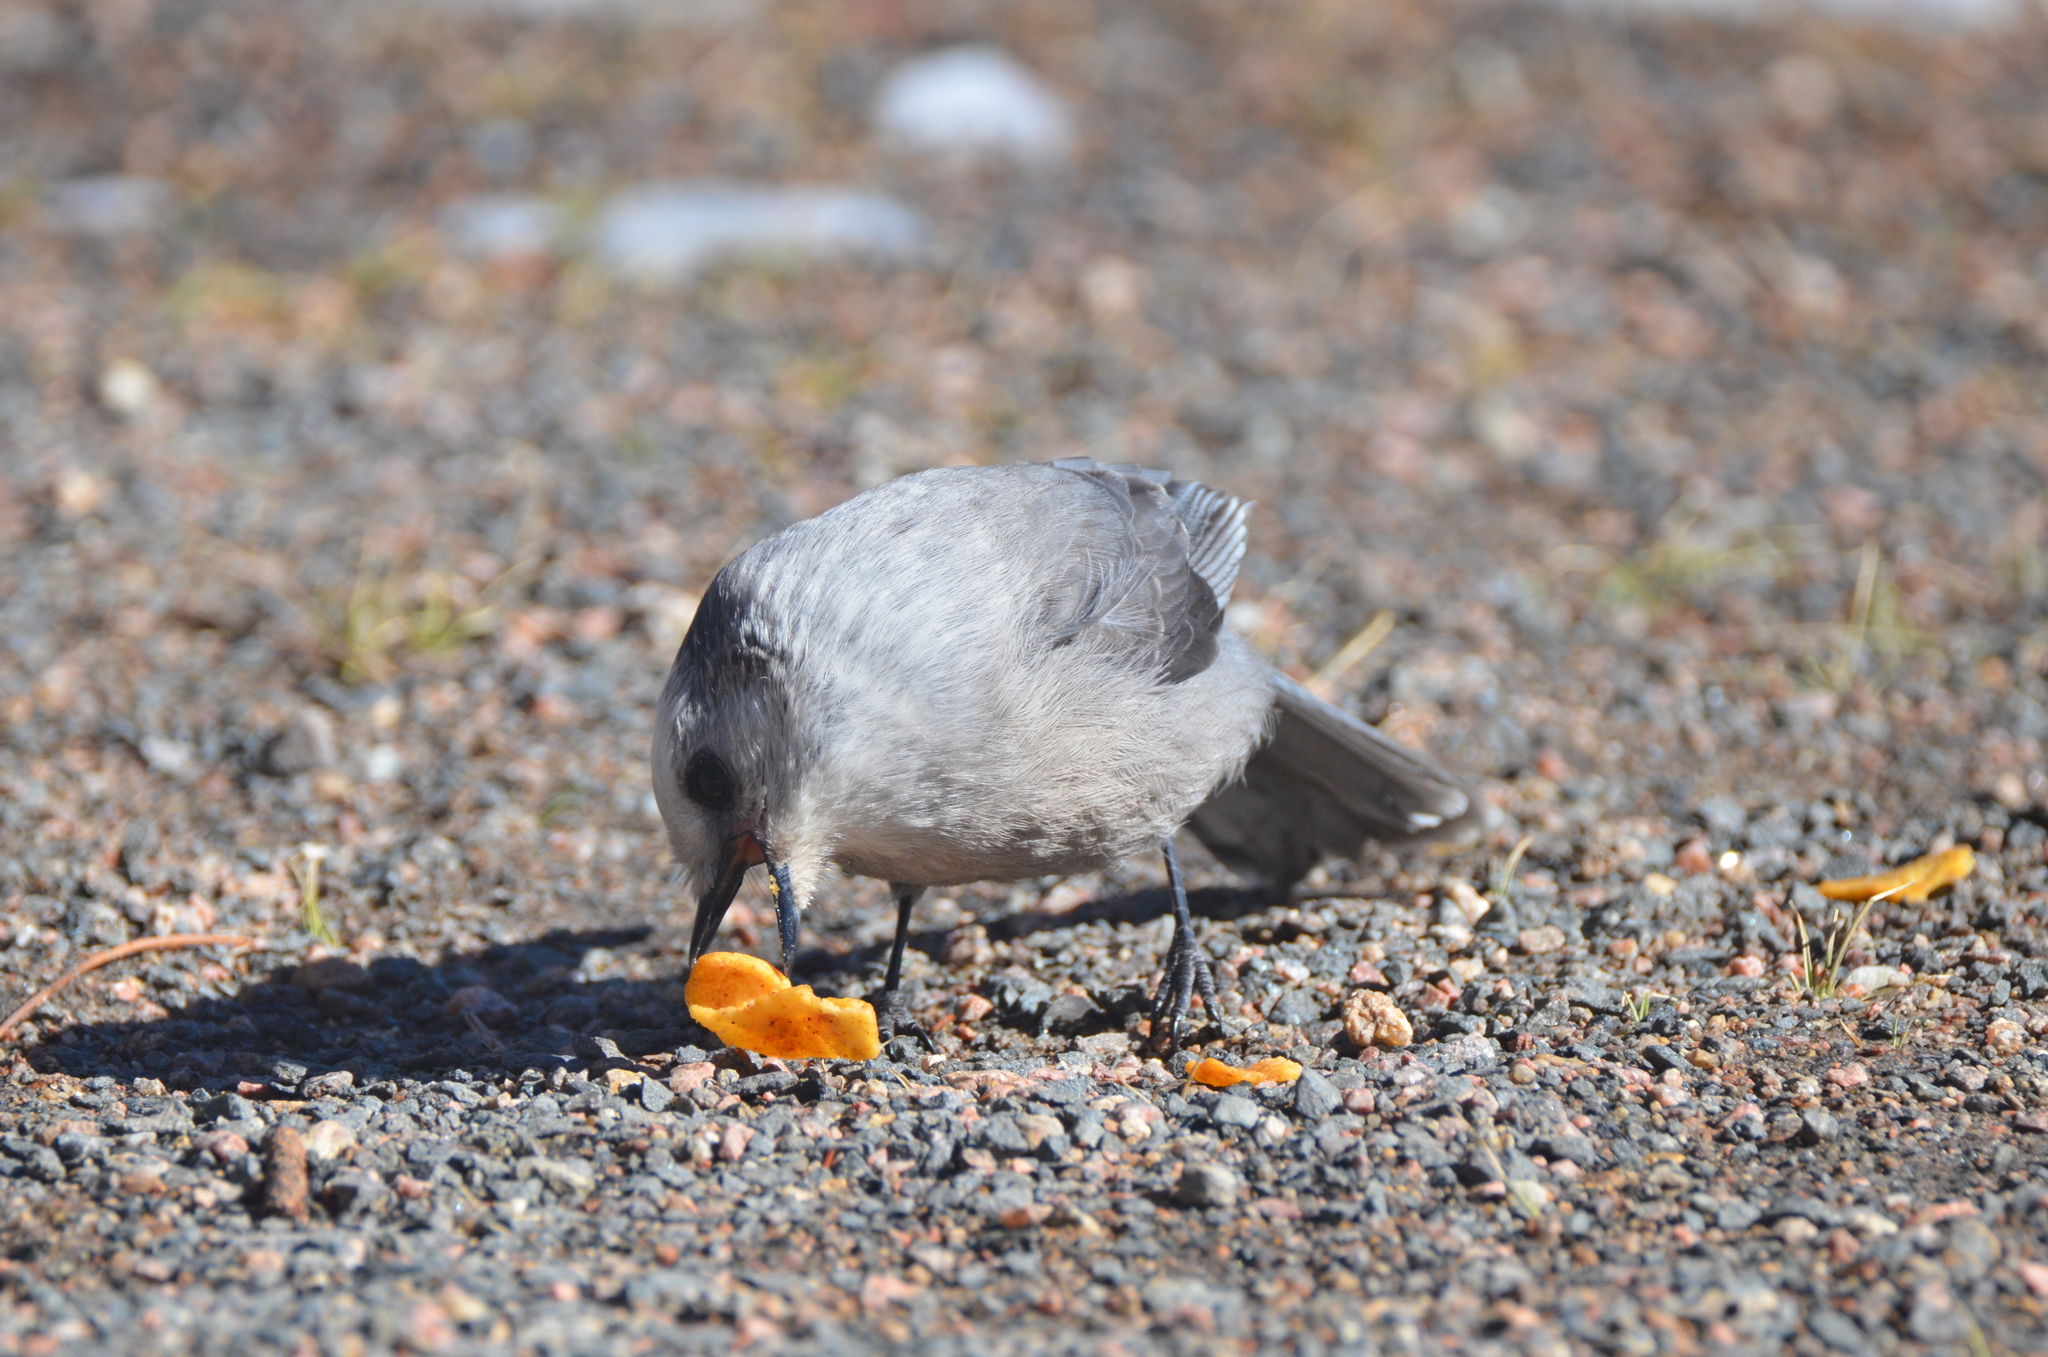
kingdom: Animalia
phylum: Chordata
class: Aves
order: Passeriformes
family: Corvidae
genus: Perisoreus
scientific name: Perisoreus canadensis
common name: Gray jay
